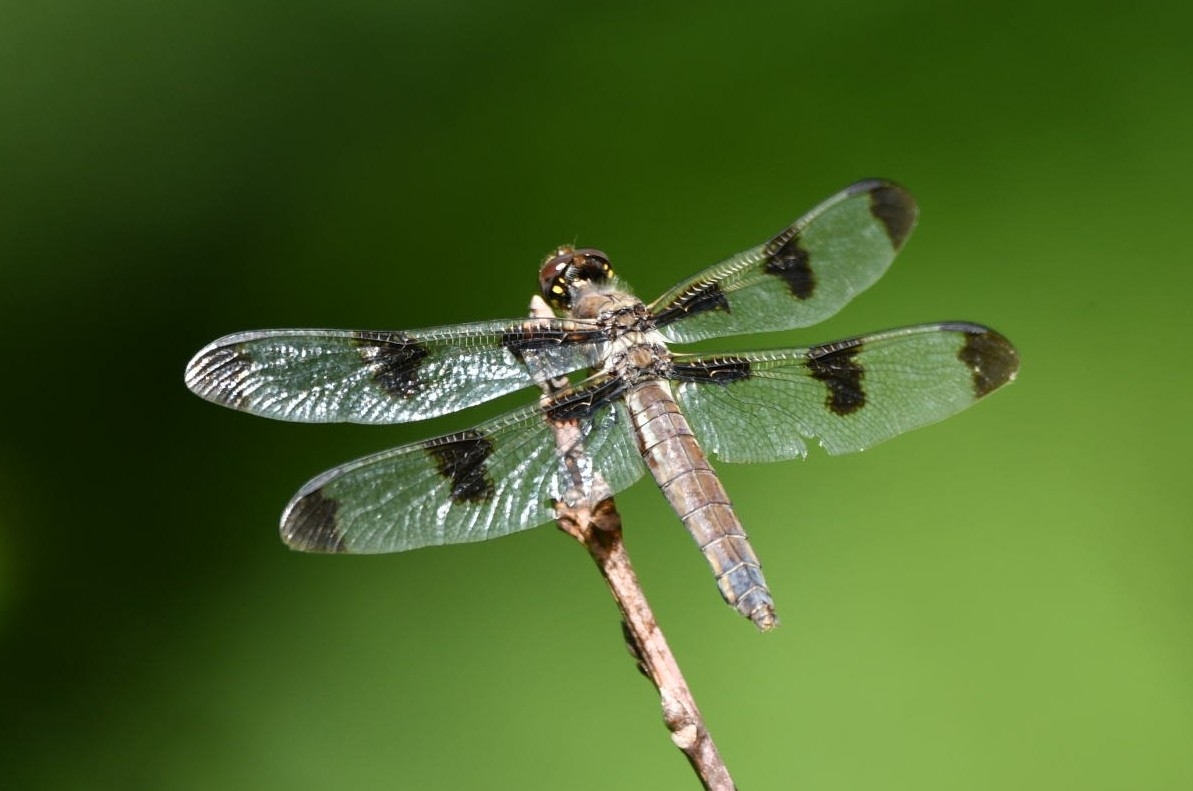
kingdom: Animalia
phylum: Arthropoda
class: Insecta
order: Odonata
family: Libellulidae
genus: Libellula
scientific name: Libellula pulchella
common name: Twelve-spotted skimmer
